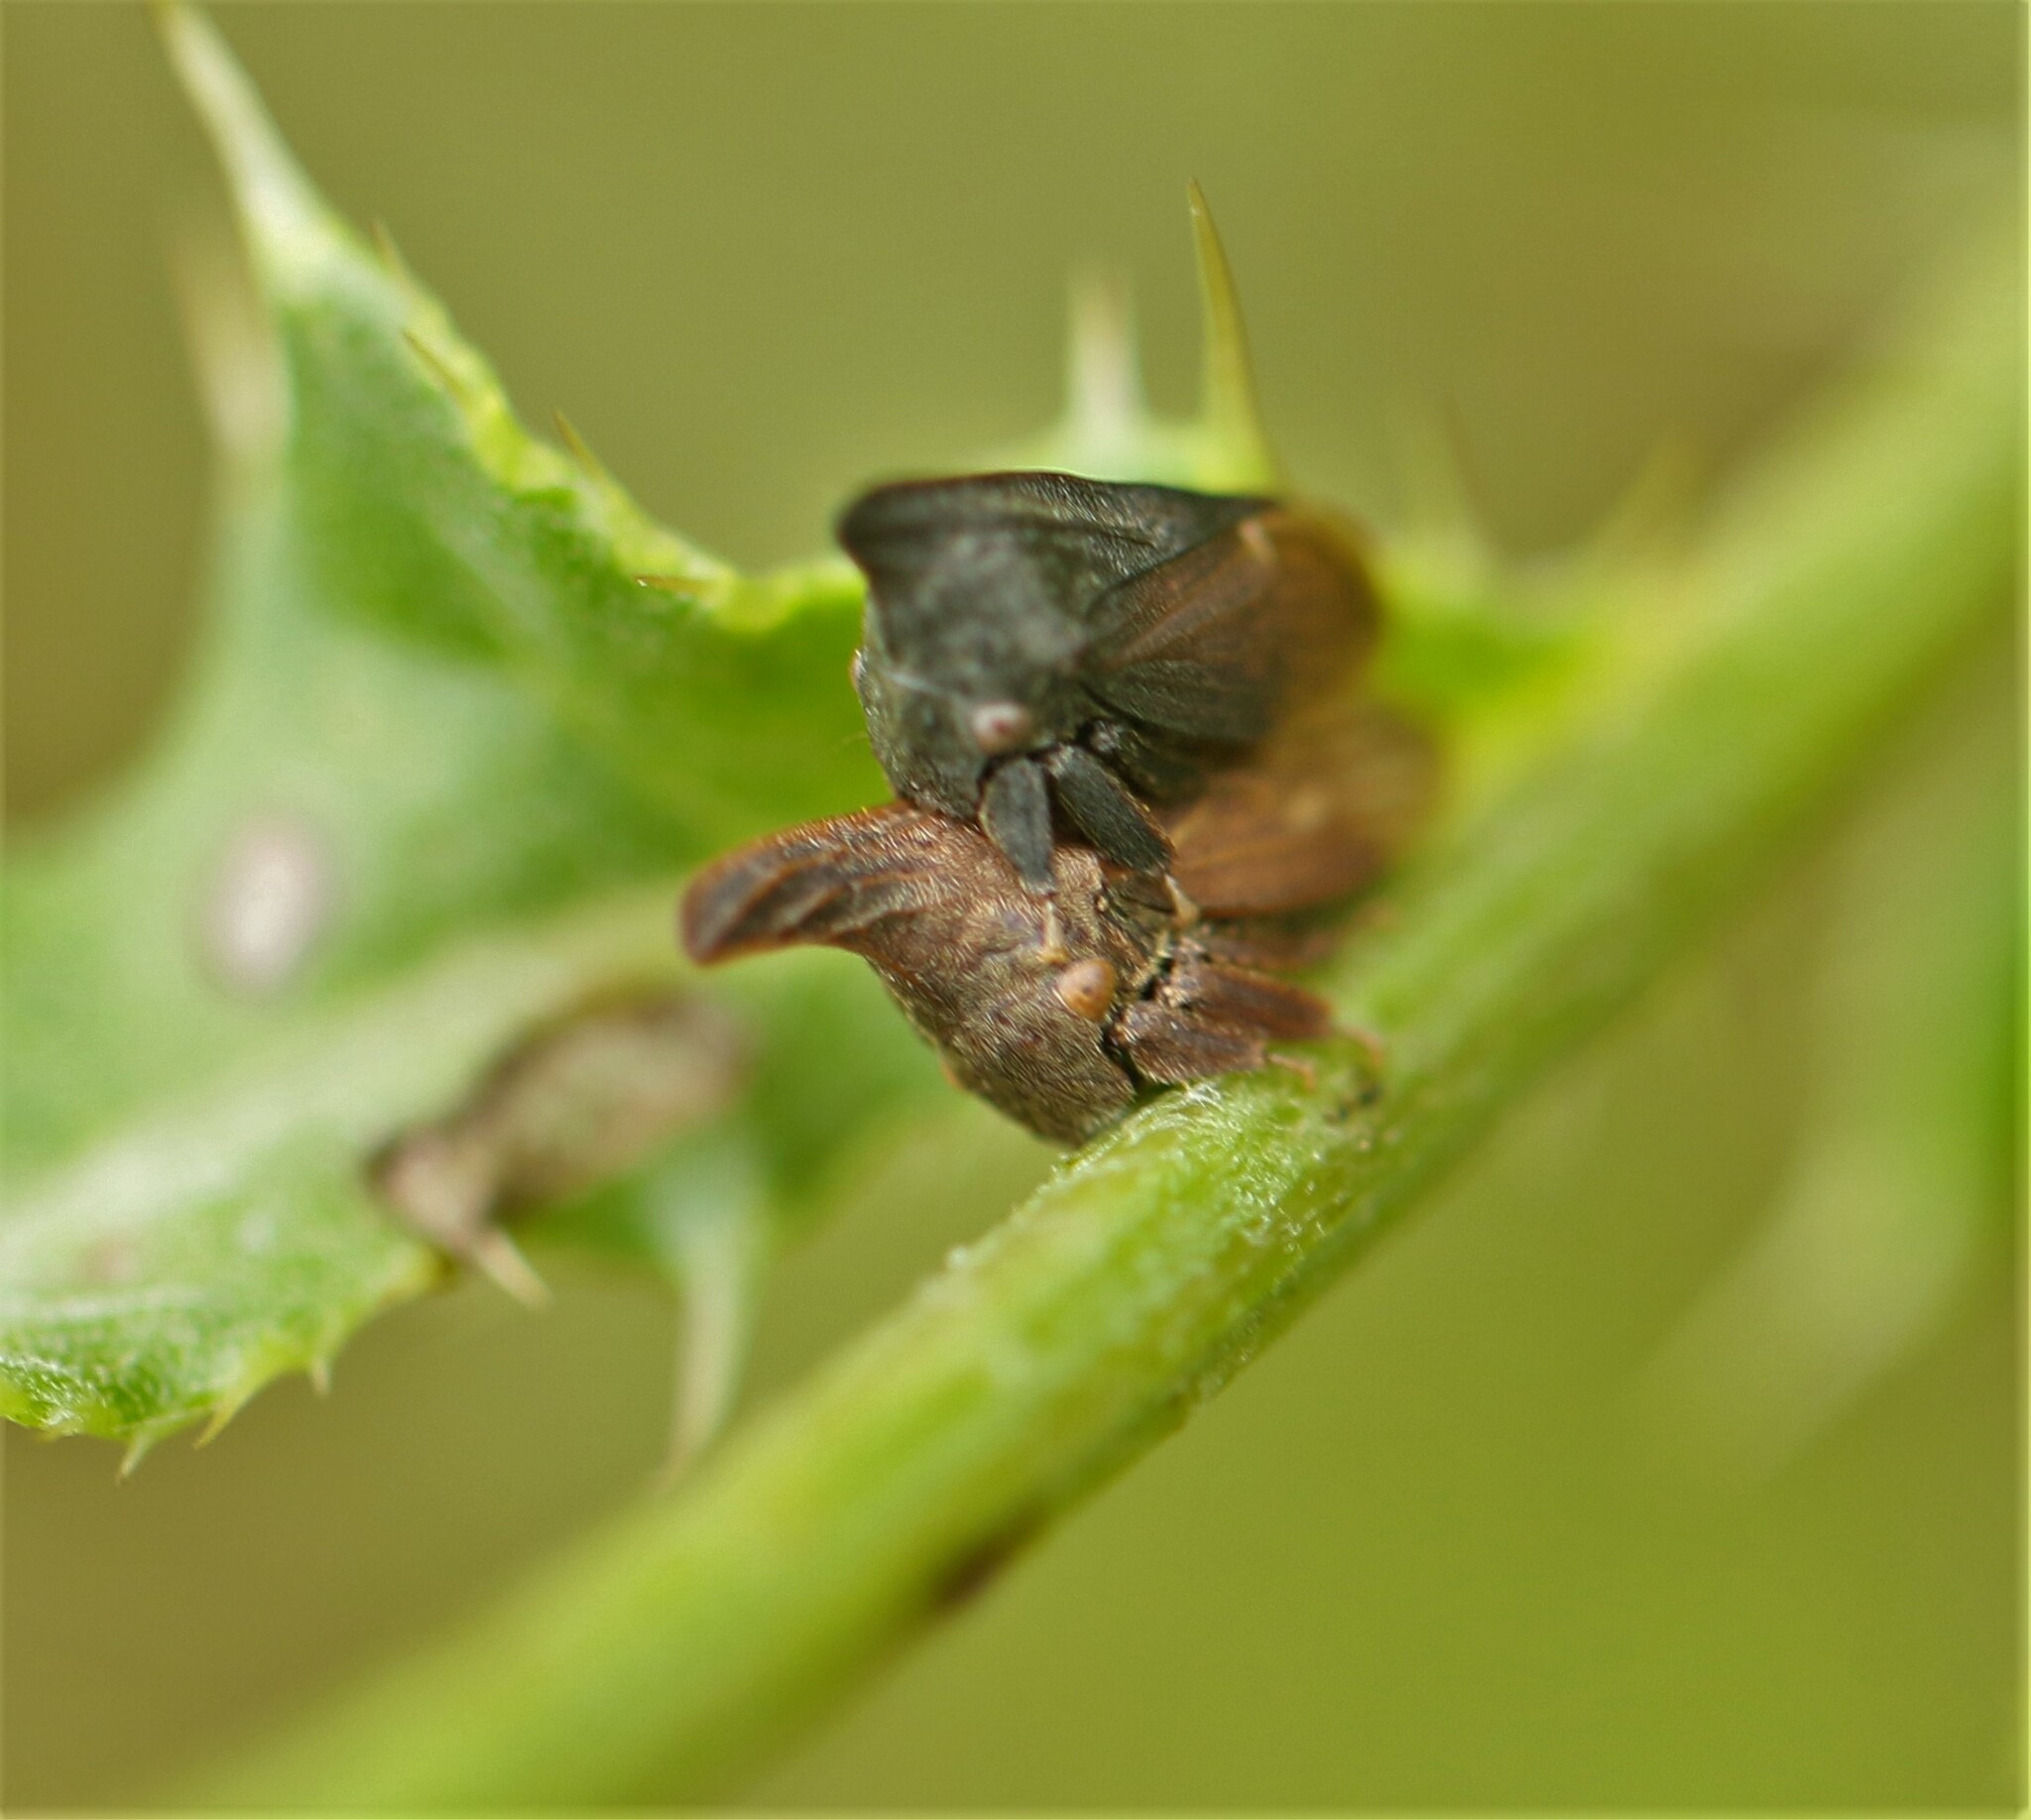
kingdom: Animalia
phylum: Arthropoda
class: Insecta
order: Hemiptera
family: Membracidae
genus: Enchenopa
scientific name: Enchenopa latipes
